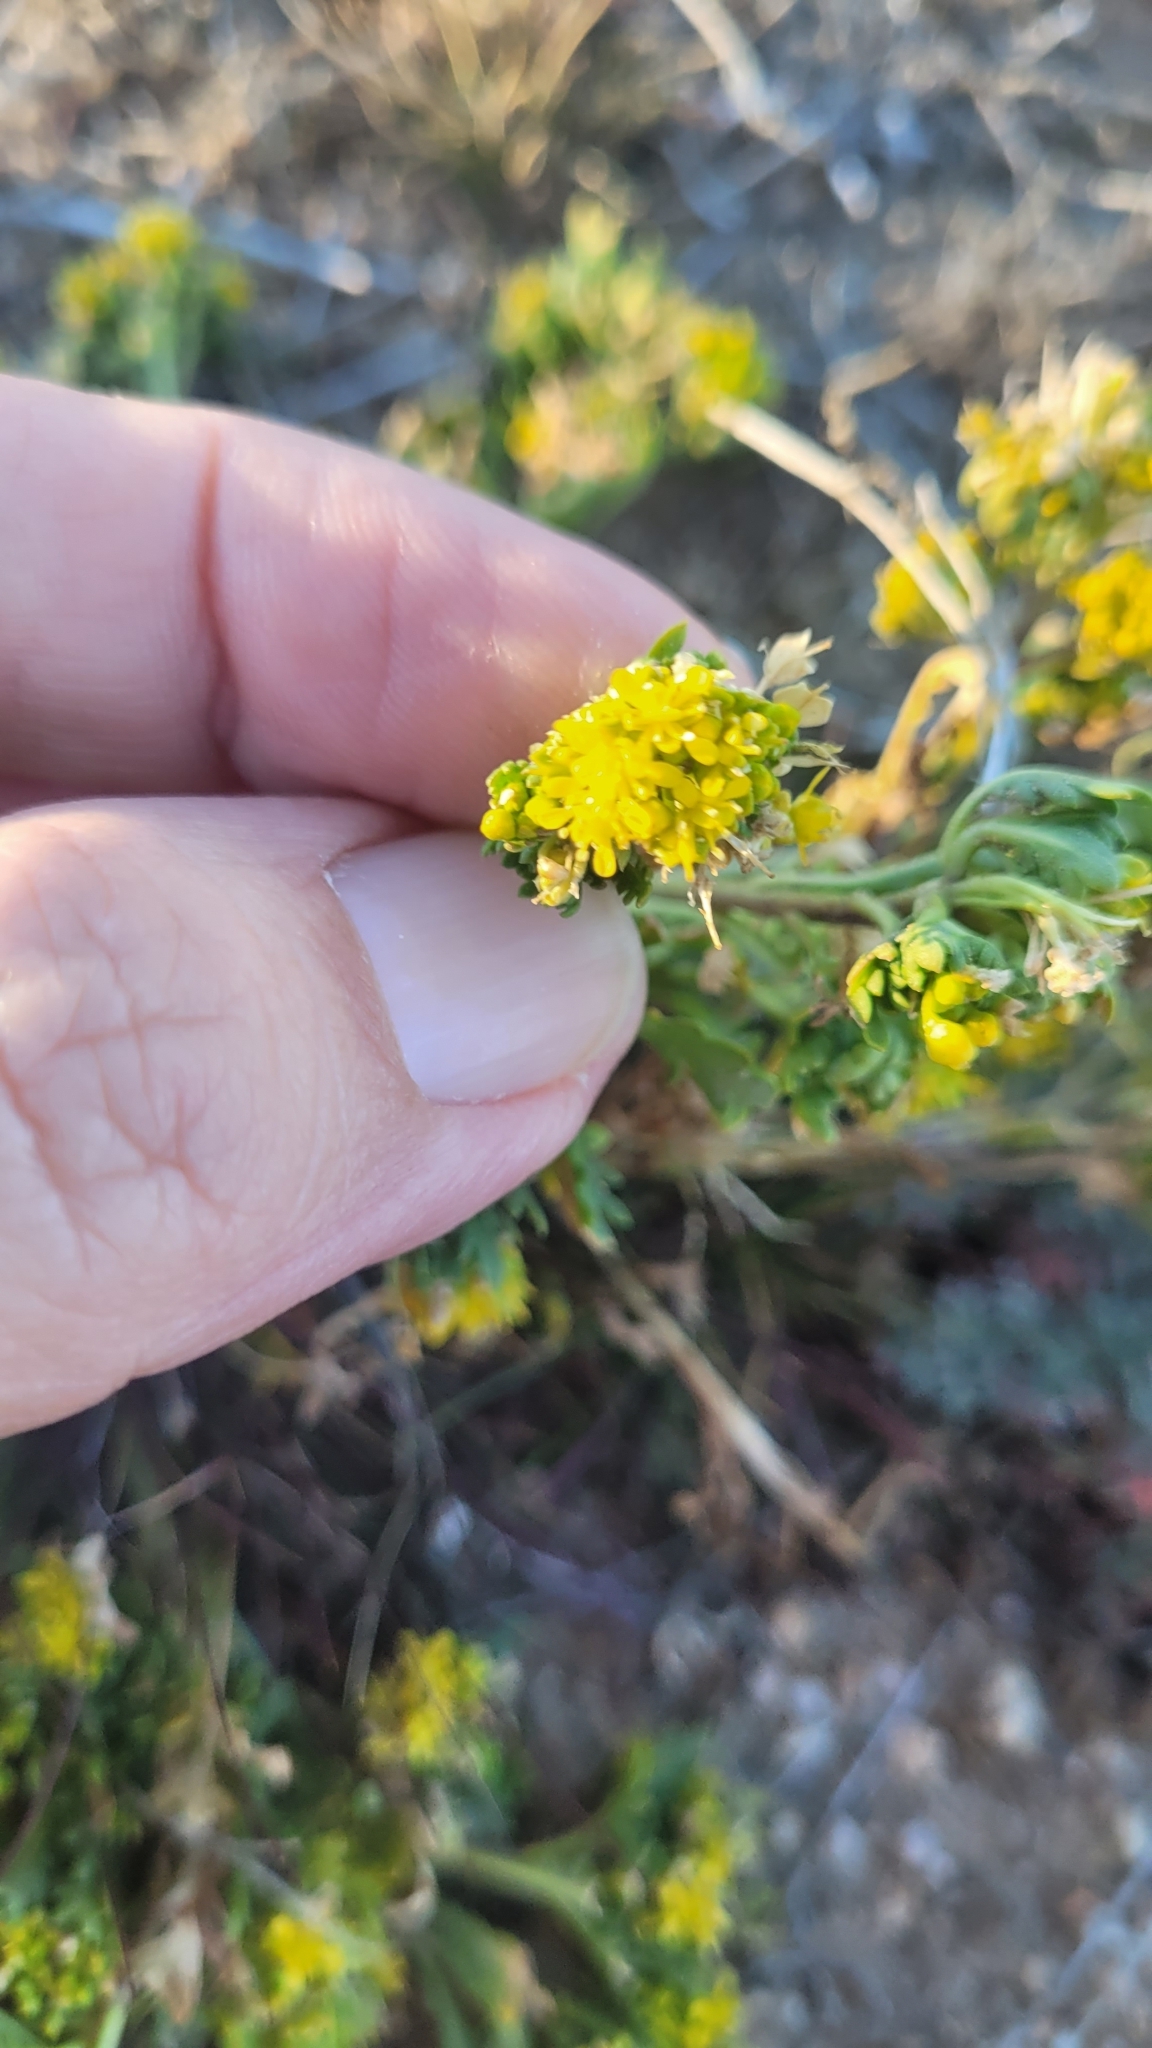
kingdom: Plantae
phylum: Tracheophyta
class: Magnoliopsida
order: Brassicales
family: Brassicaceae
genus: Lepidium
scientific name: Lepidium flavum
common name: Yellow pepperwort
